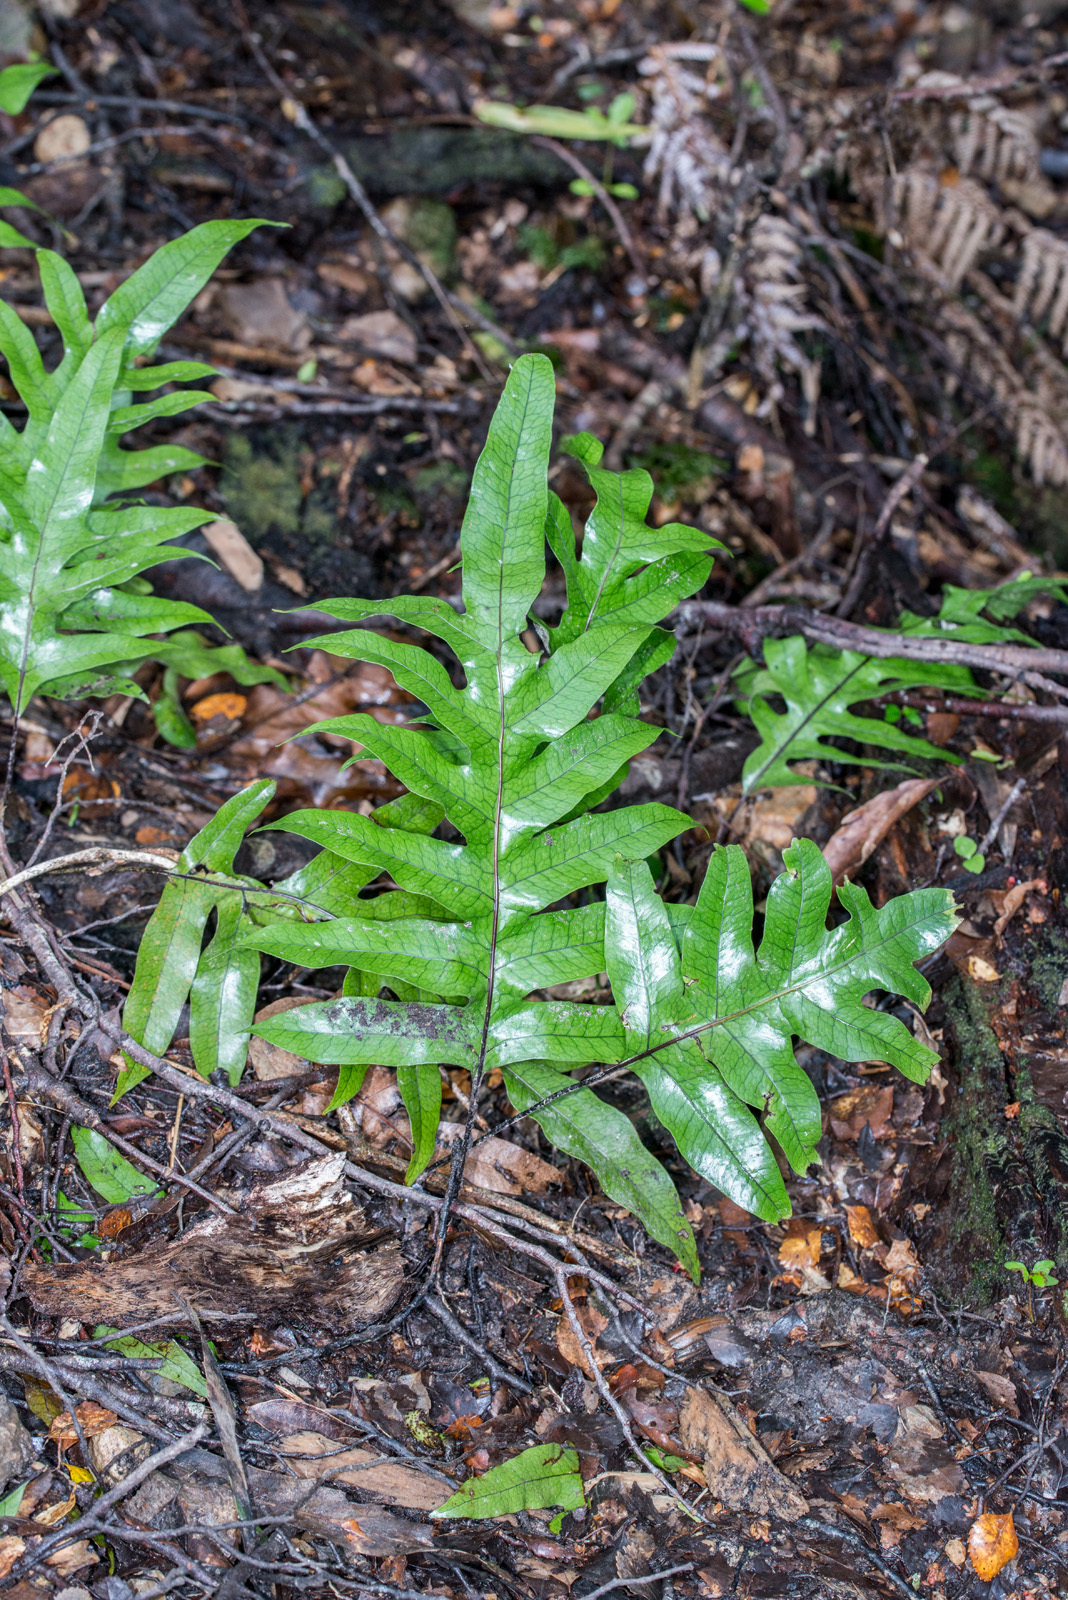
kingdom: Plantae
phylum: Tracheophyta
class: Polypodiopsida
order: Polypodiales
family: Polypodiaceae
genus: Lecanopteris
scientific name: Lecanopteris pustulata
